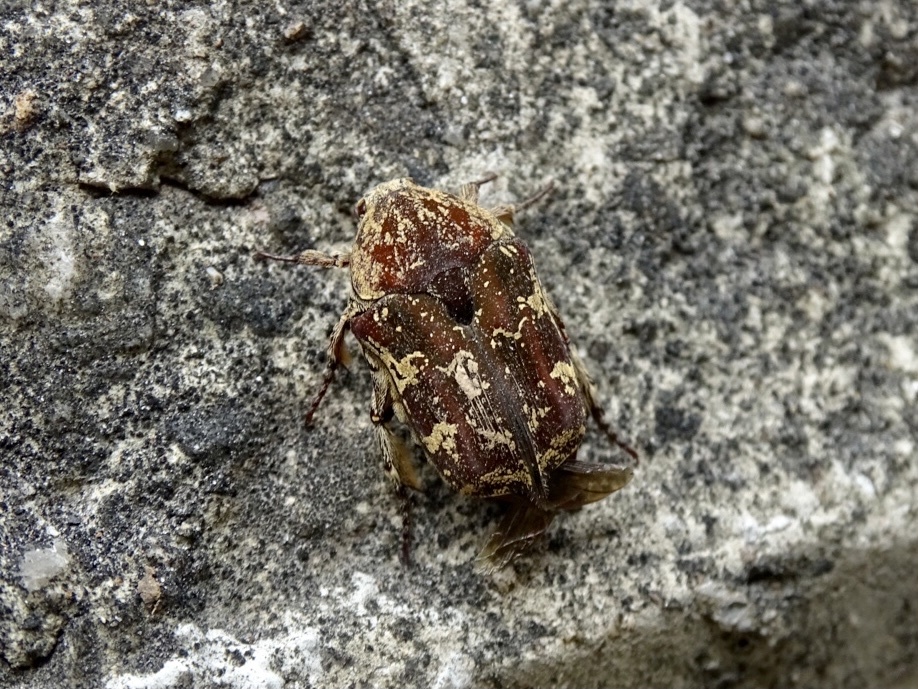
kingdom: Animalia
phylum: Arthropoda
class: Insecta
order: Coleoptera
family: Scarabaeidae
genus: Protaetia
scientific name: Protaetia fusca
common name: Mango flower beetle
